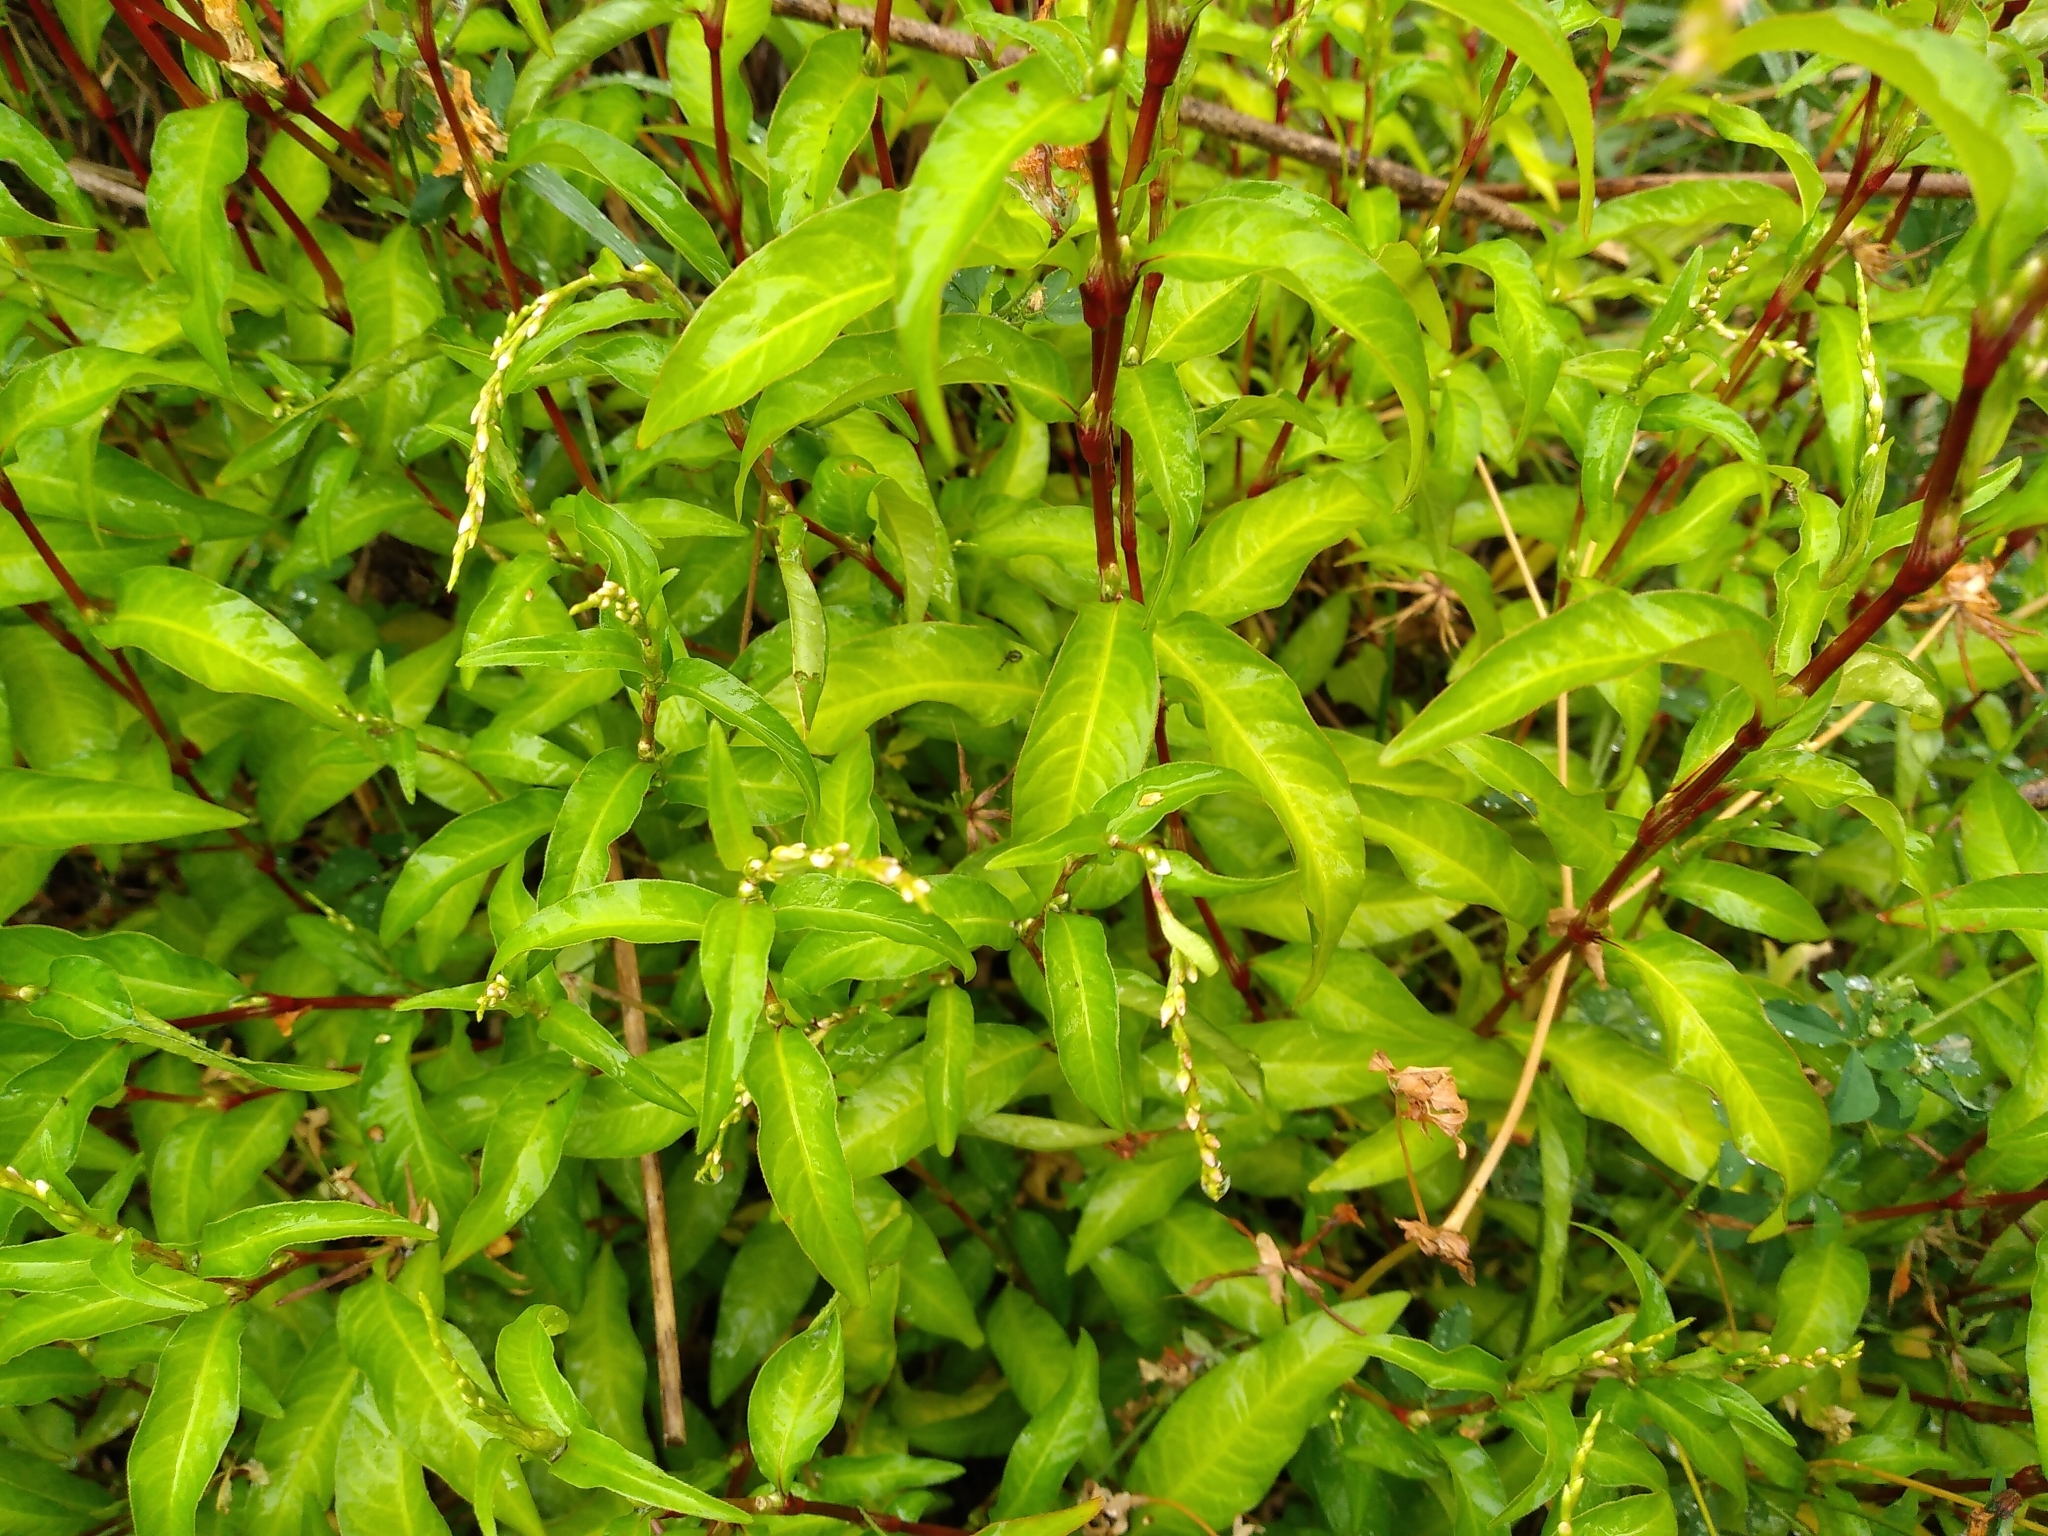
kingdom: Plantae
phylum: Tracheophyta
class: Magnoliopsida
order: Caryophyllales
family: Polygonaceae
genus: Persicaria
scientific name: Persicaria hydropiper
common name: Water-pepper
